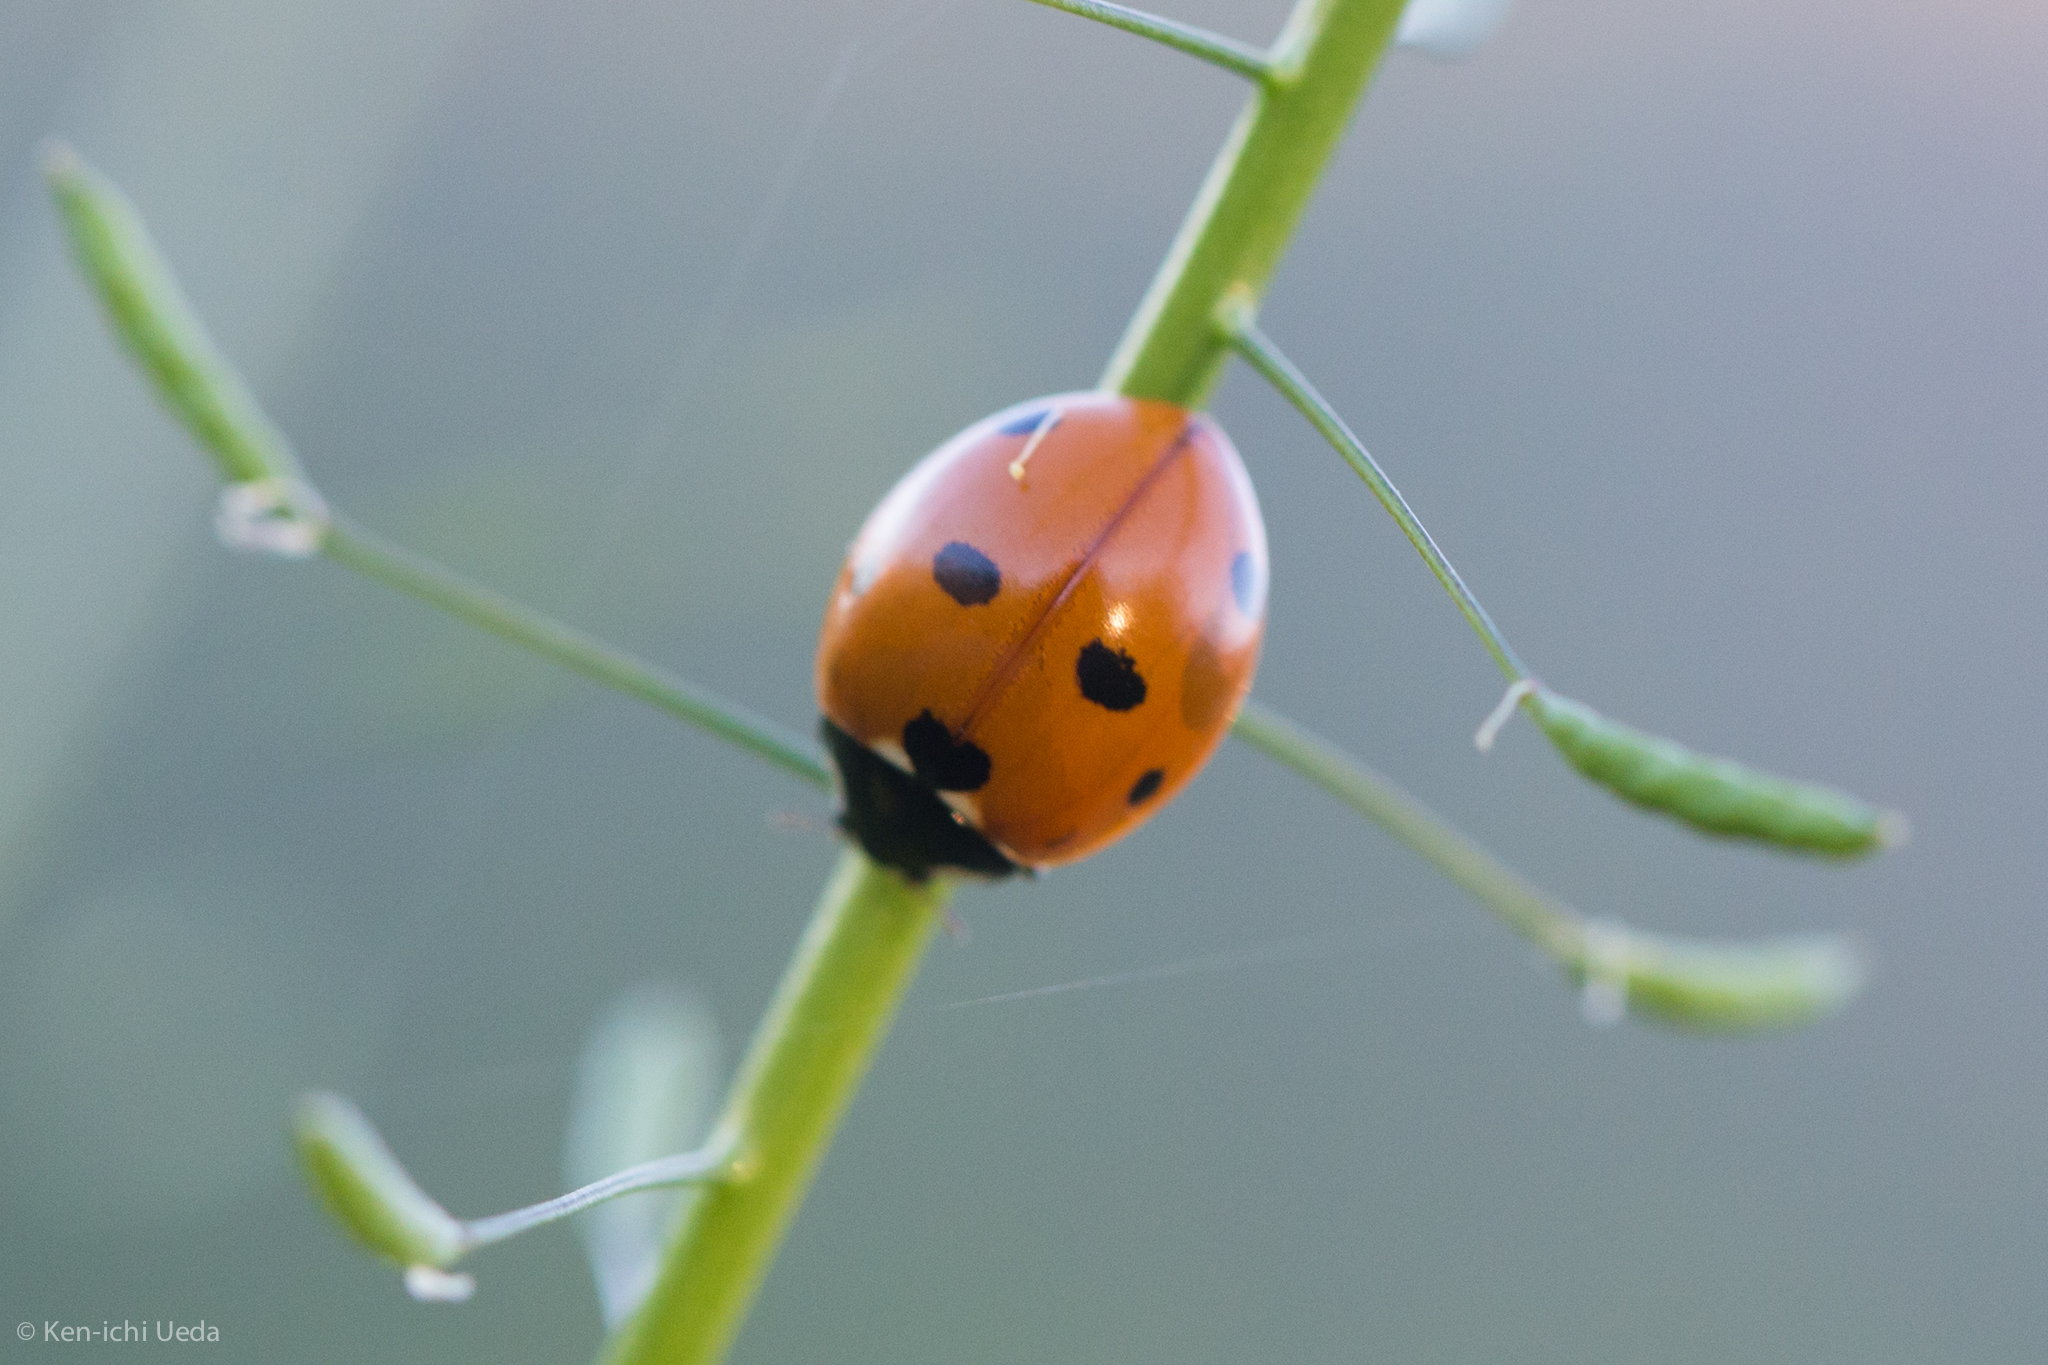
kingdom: Animalia
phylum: Arthropoda
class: Insecta
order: Coleoptera
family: Coccinellidae
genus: Coccinella
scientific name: Coccinella septempunctata
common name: Sevenspotted lady beetle
